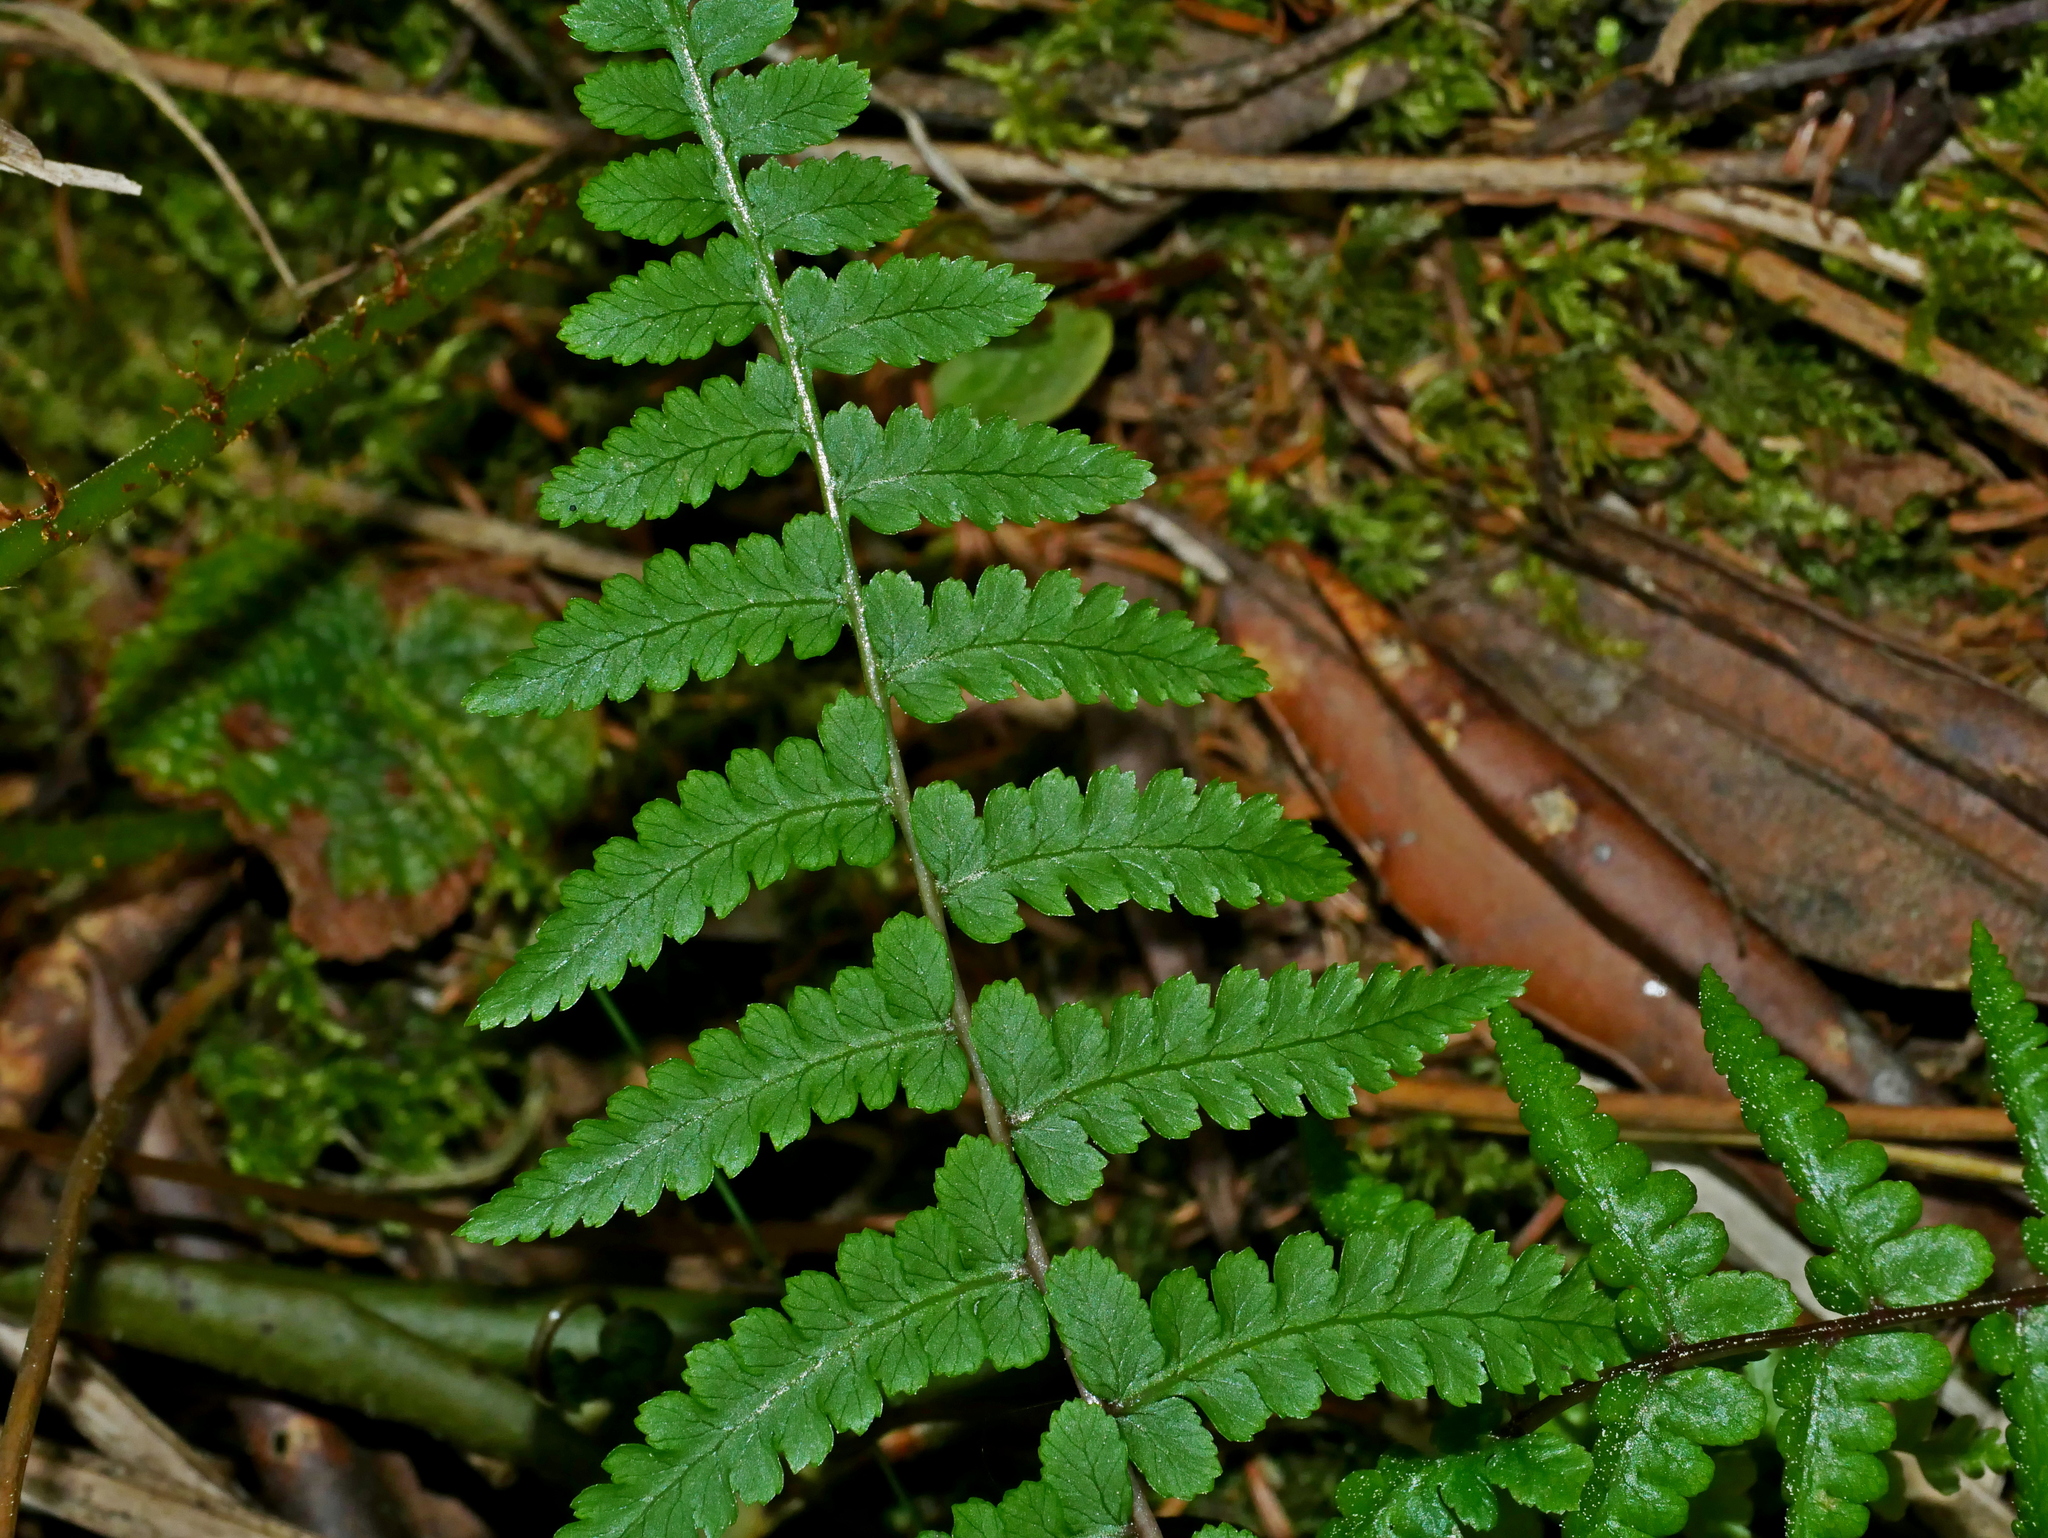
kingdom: Plantae
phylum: Tracheophyta
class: Polypodiopsida
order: Polypodiales
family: Athyriaceae
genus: Athyrium
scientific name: Athyrium oppositipennum
